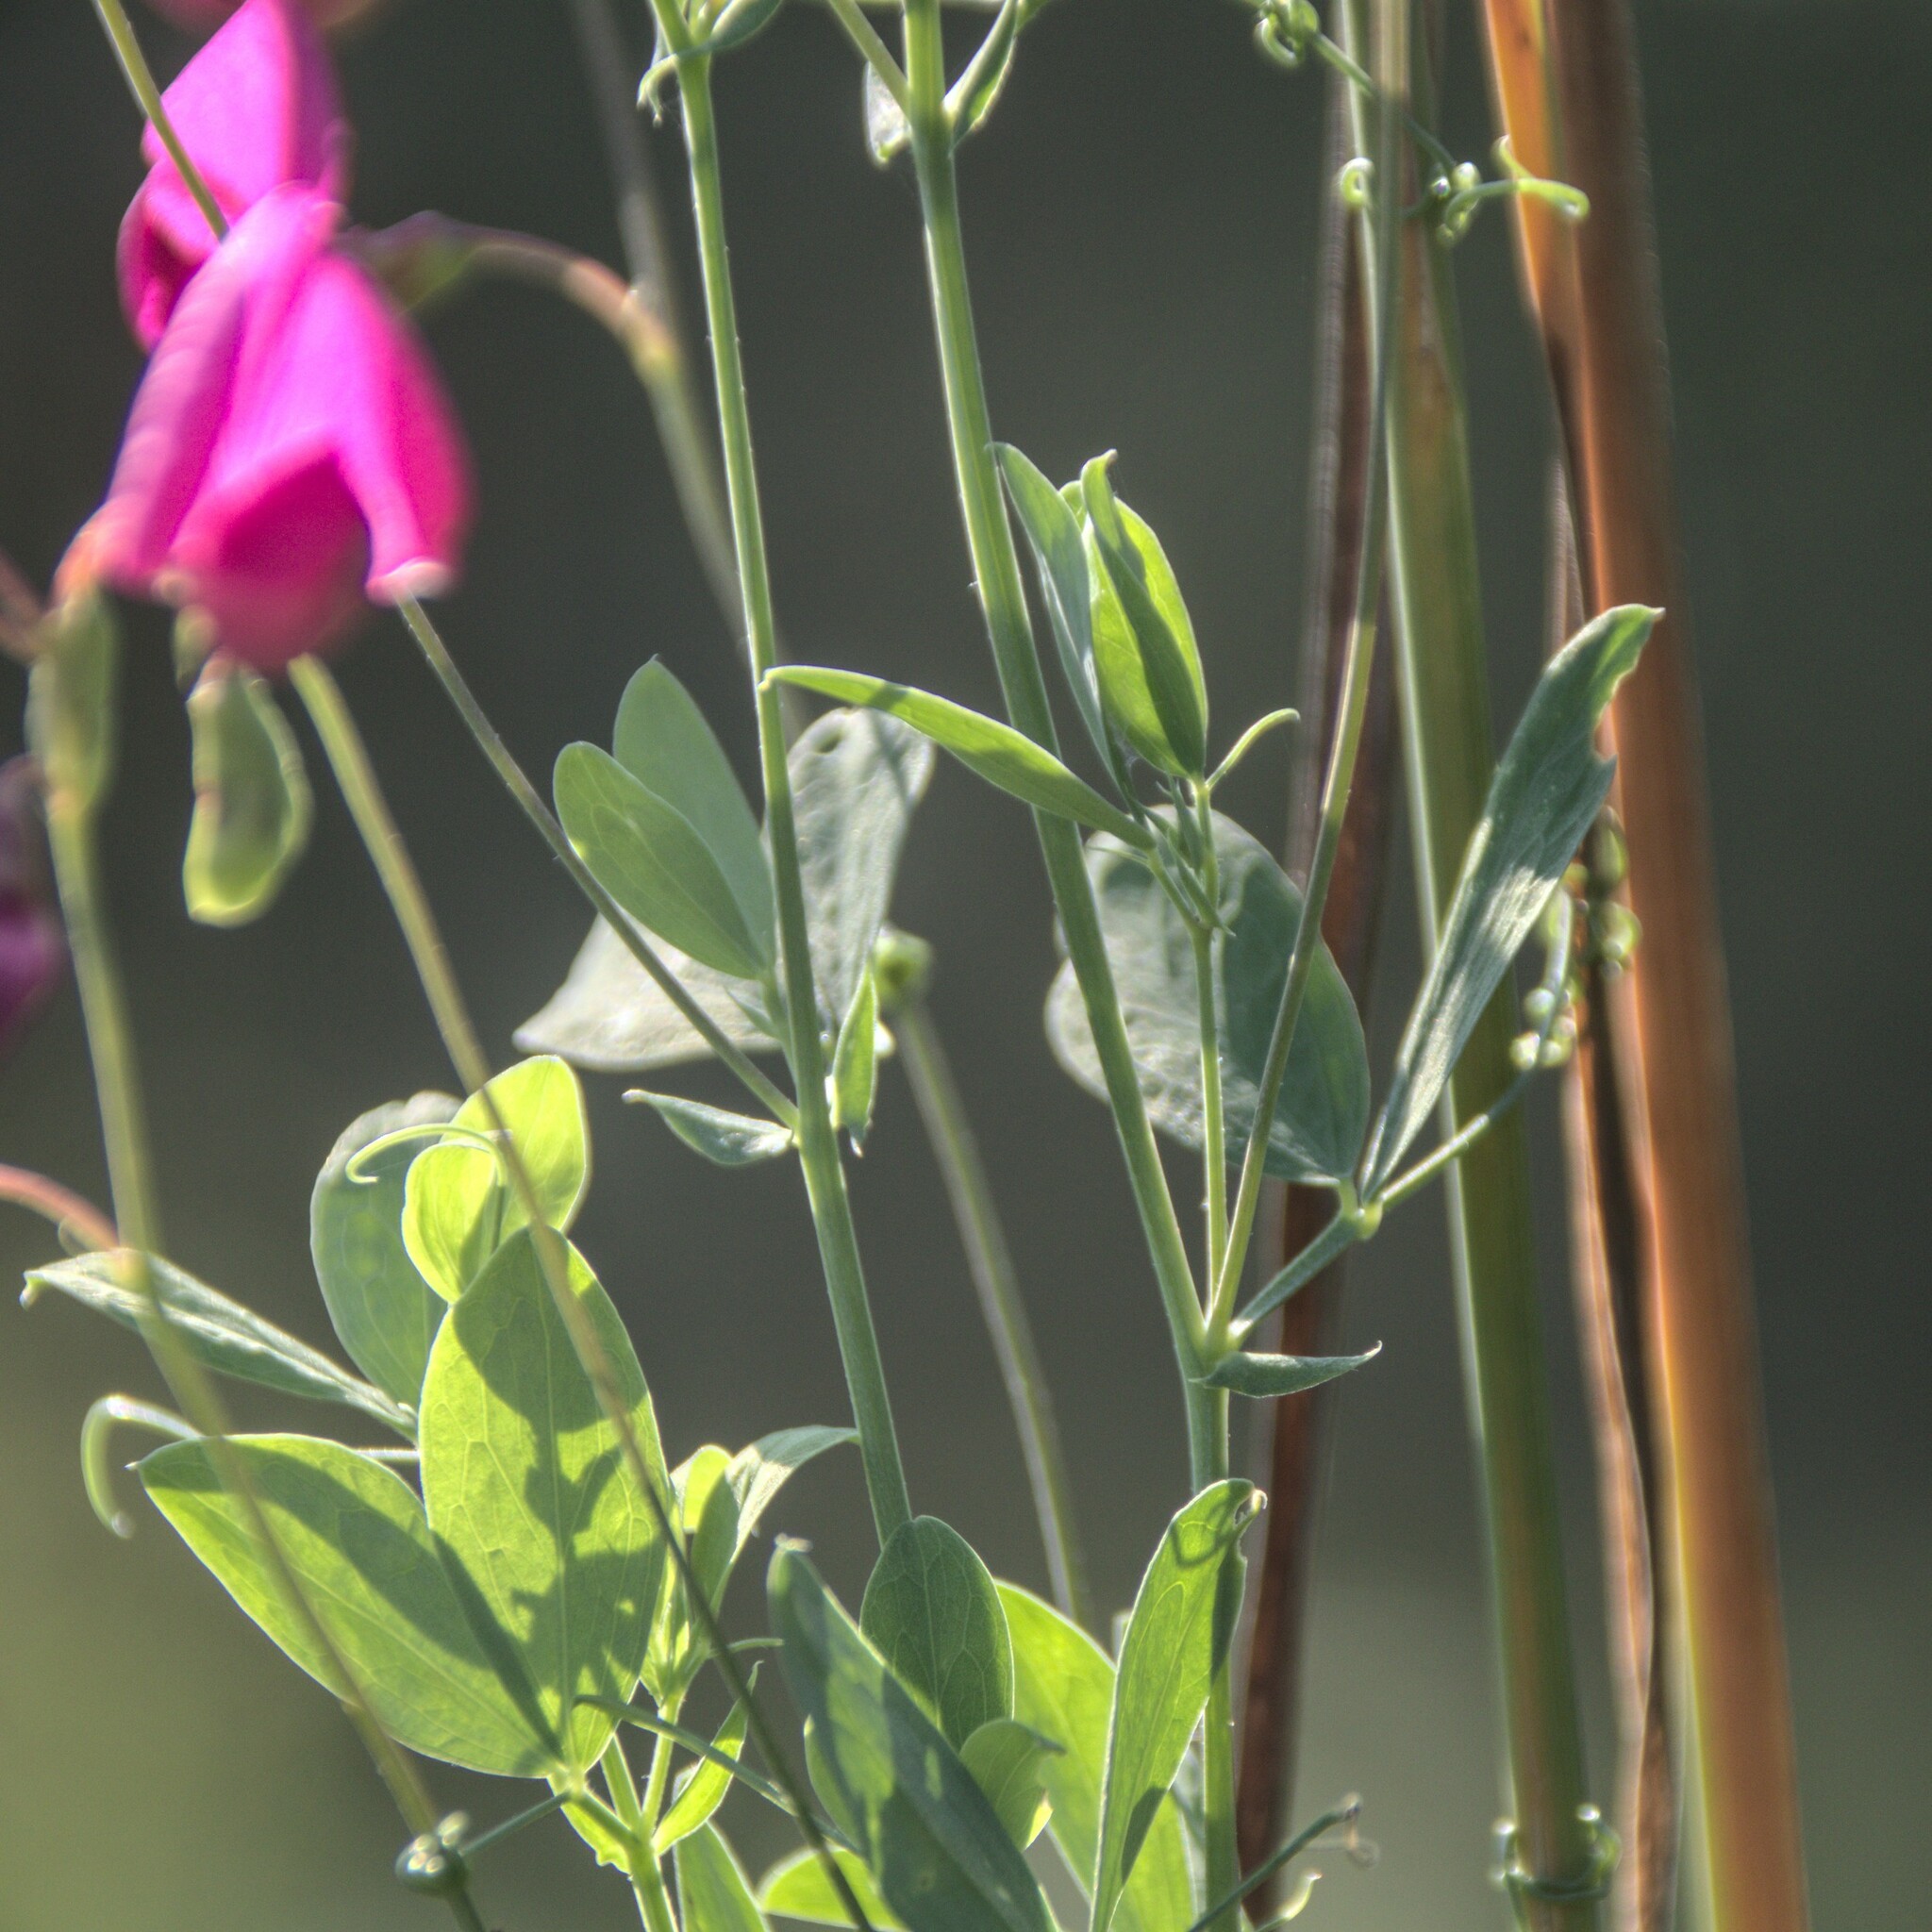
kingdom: Plantae
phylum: Tracheophyta
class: Magnoliopsida
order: Fabales
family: Fabaceae
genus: Lathyrus
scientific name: Lathyrus tuberosus
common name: Tuberous pea
